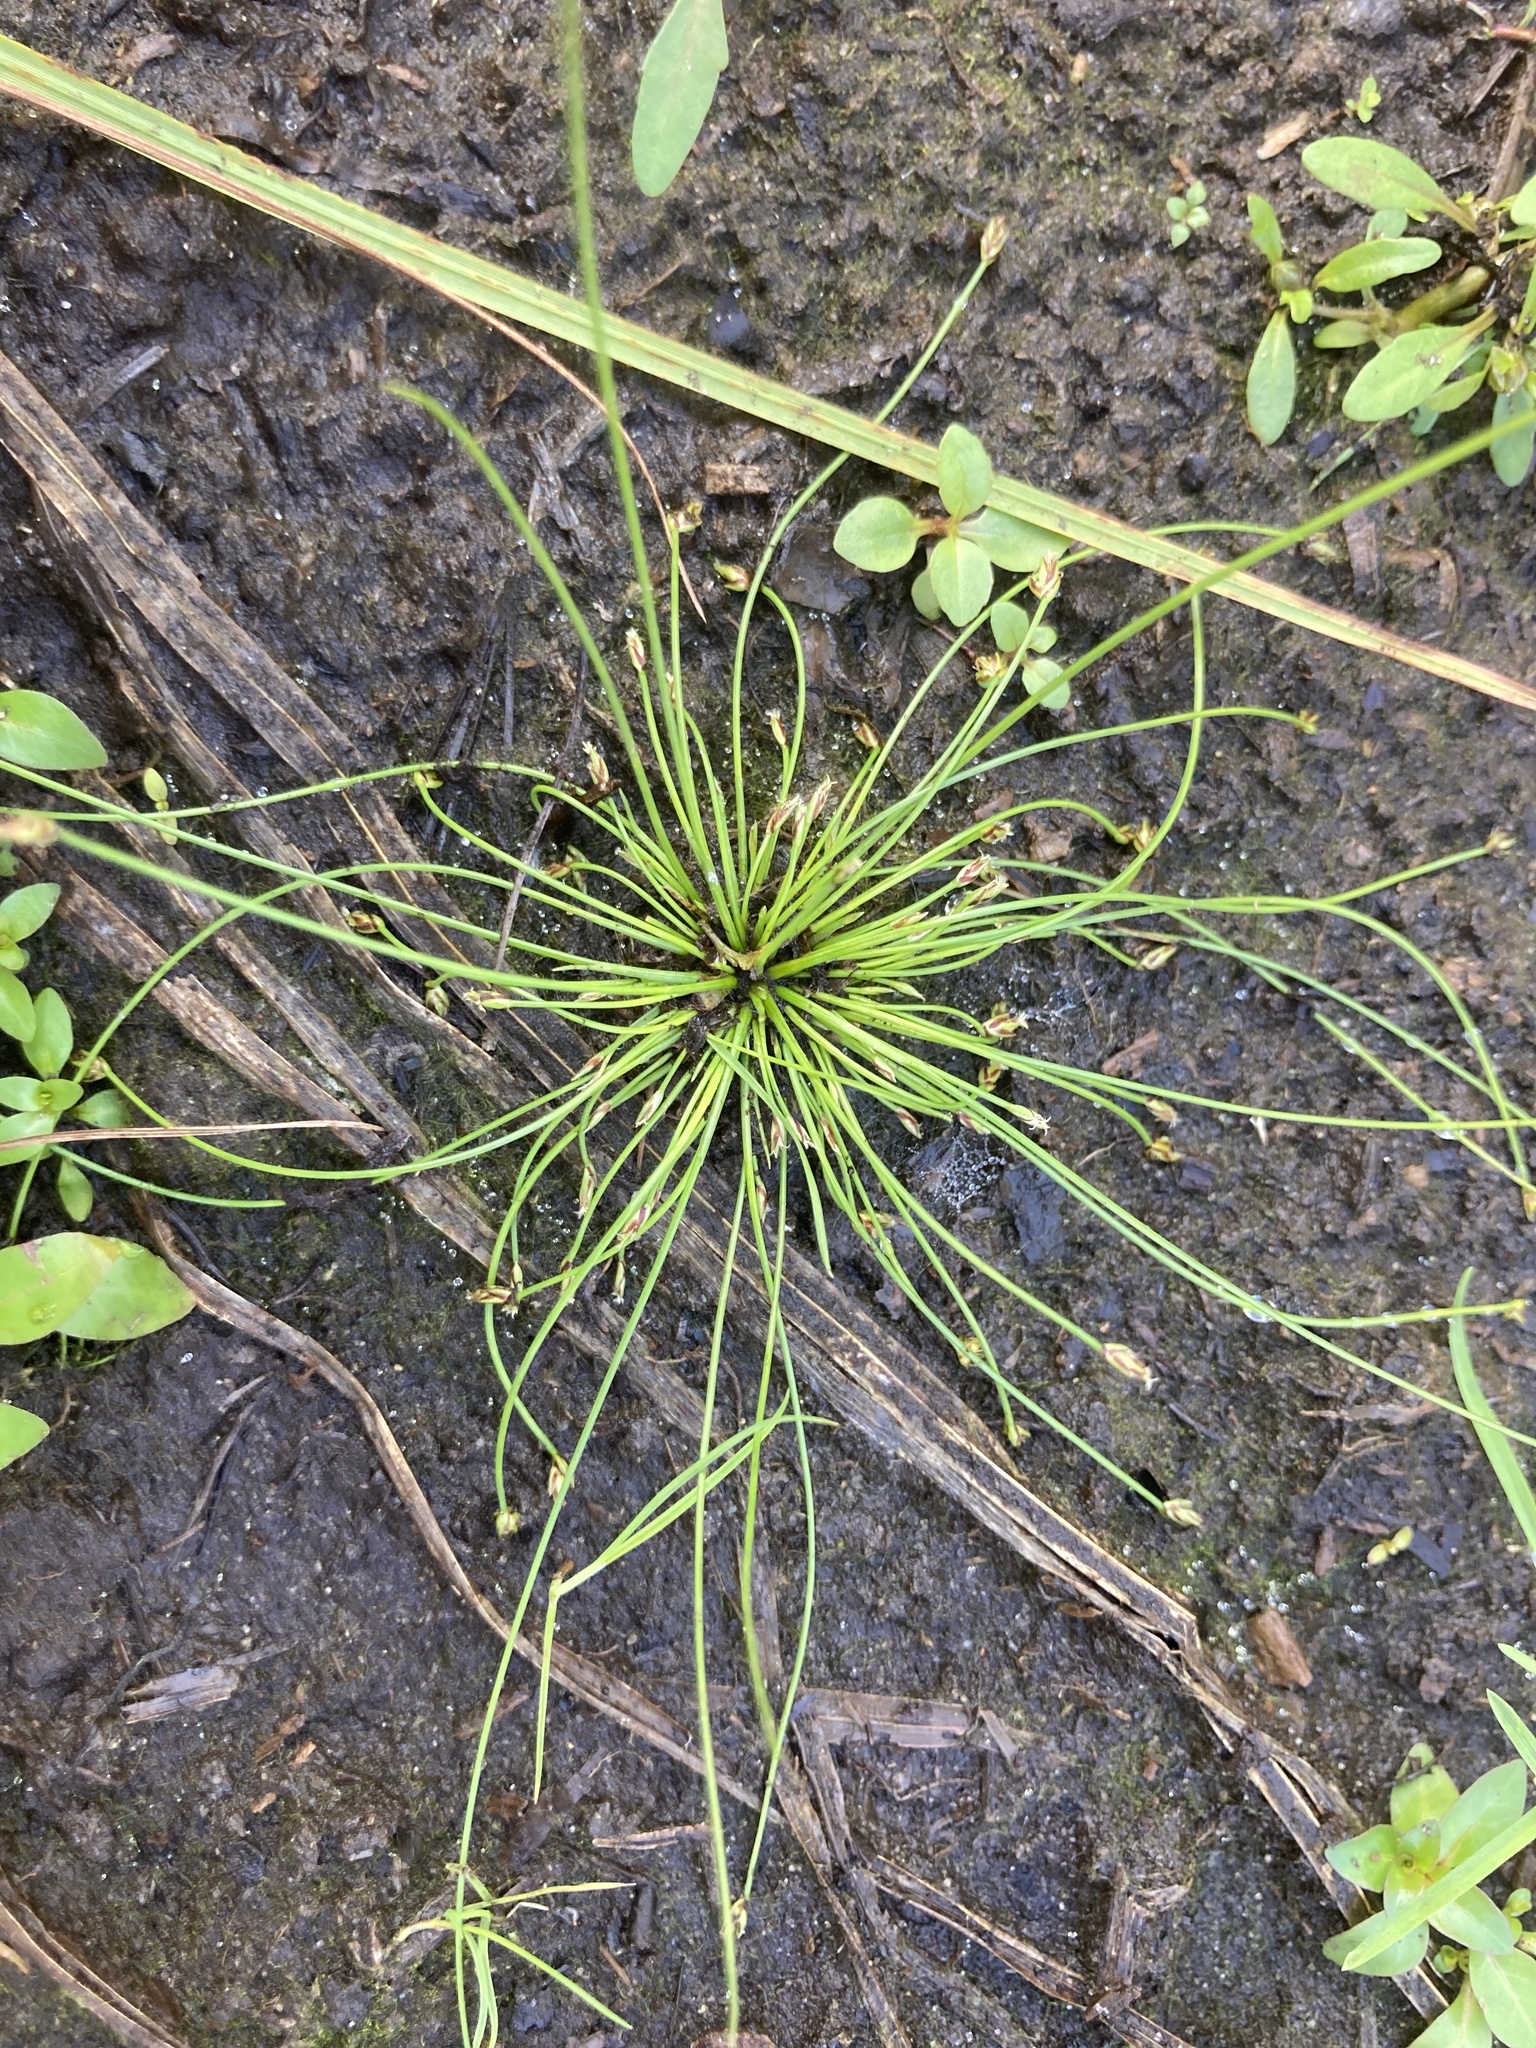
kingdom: Plantae
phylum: Tracheophyta
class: Liliopsida
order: Poales
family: Cyperaceae
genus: Eleocharis
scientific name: Eleocharis intermedia
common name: Intermediate spikerush
